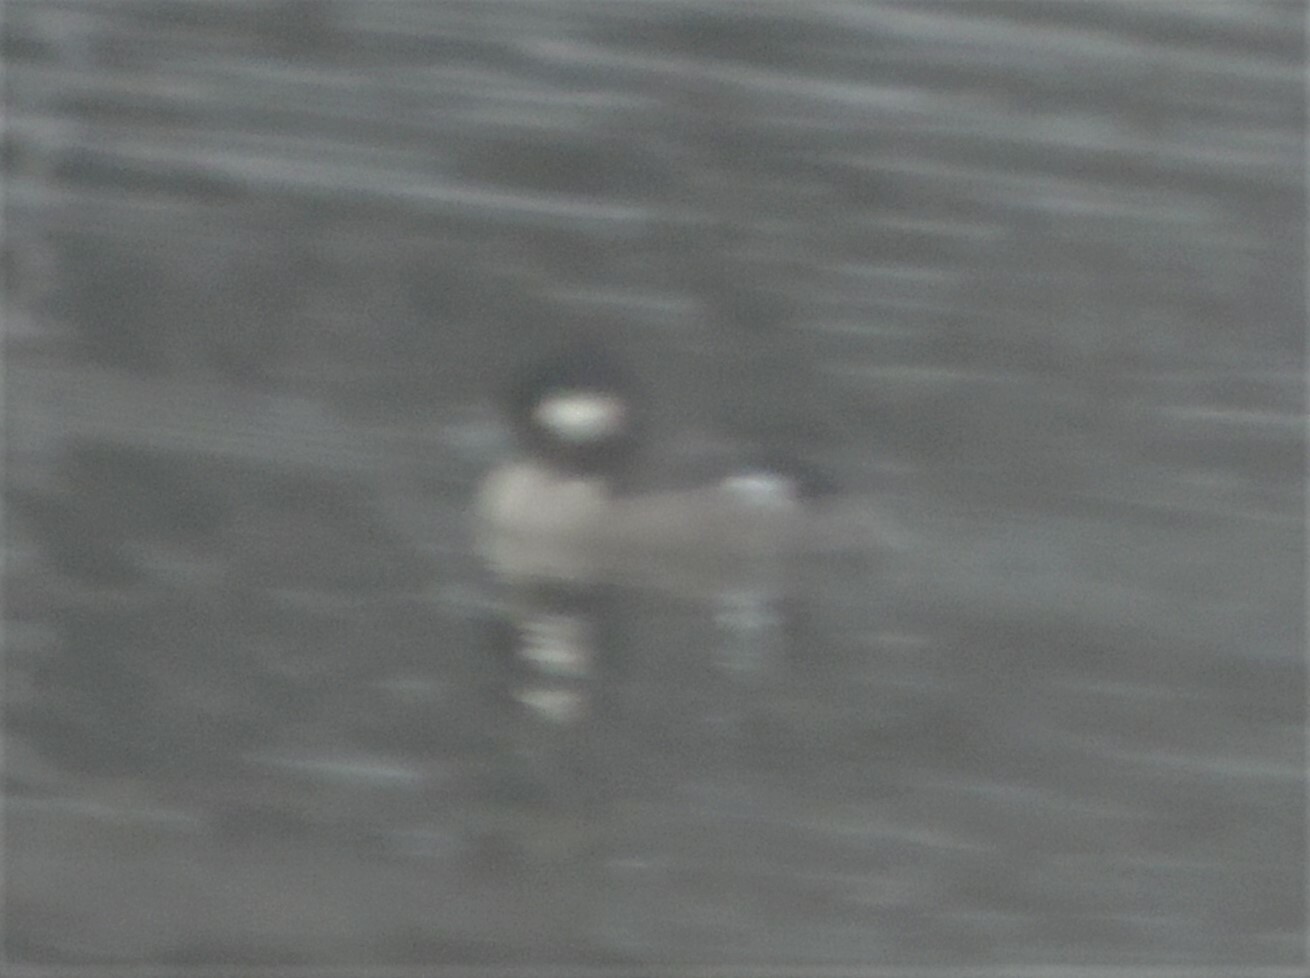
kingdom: Animalia
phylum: Chordata
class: Aves
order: Anseriformes
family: Anatidae
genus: Bucephala
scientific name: Bucephala albeola
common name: Bufflehead
